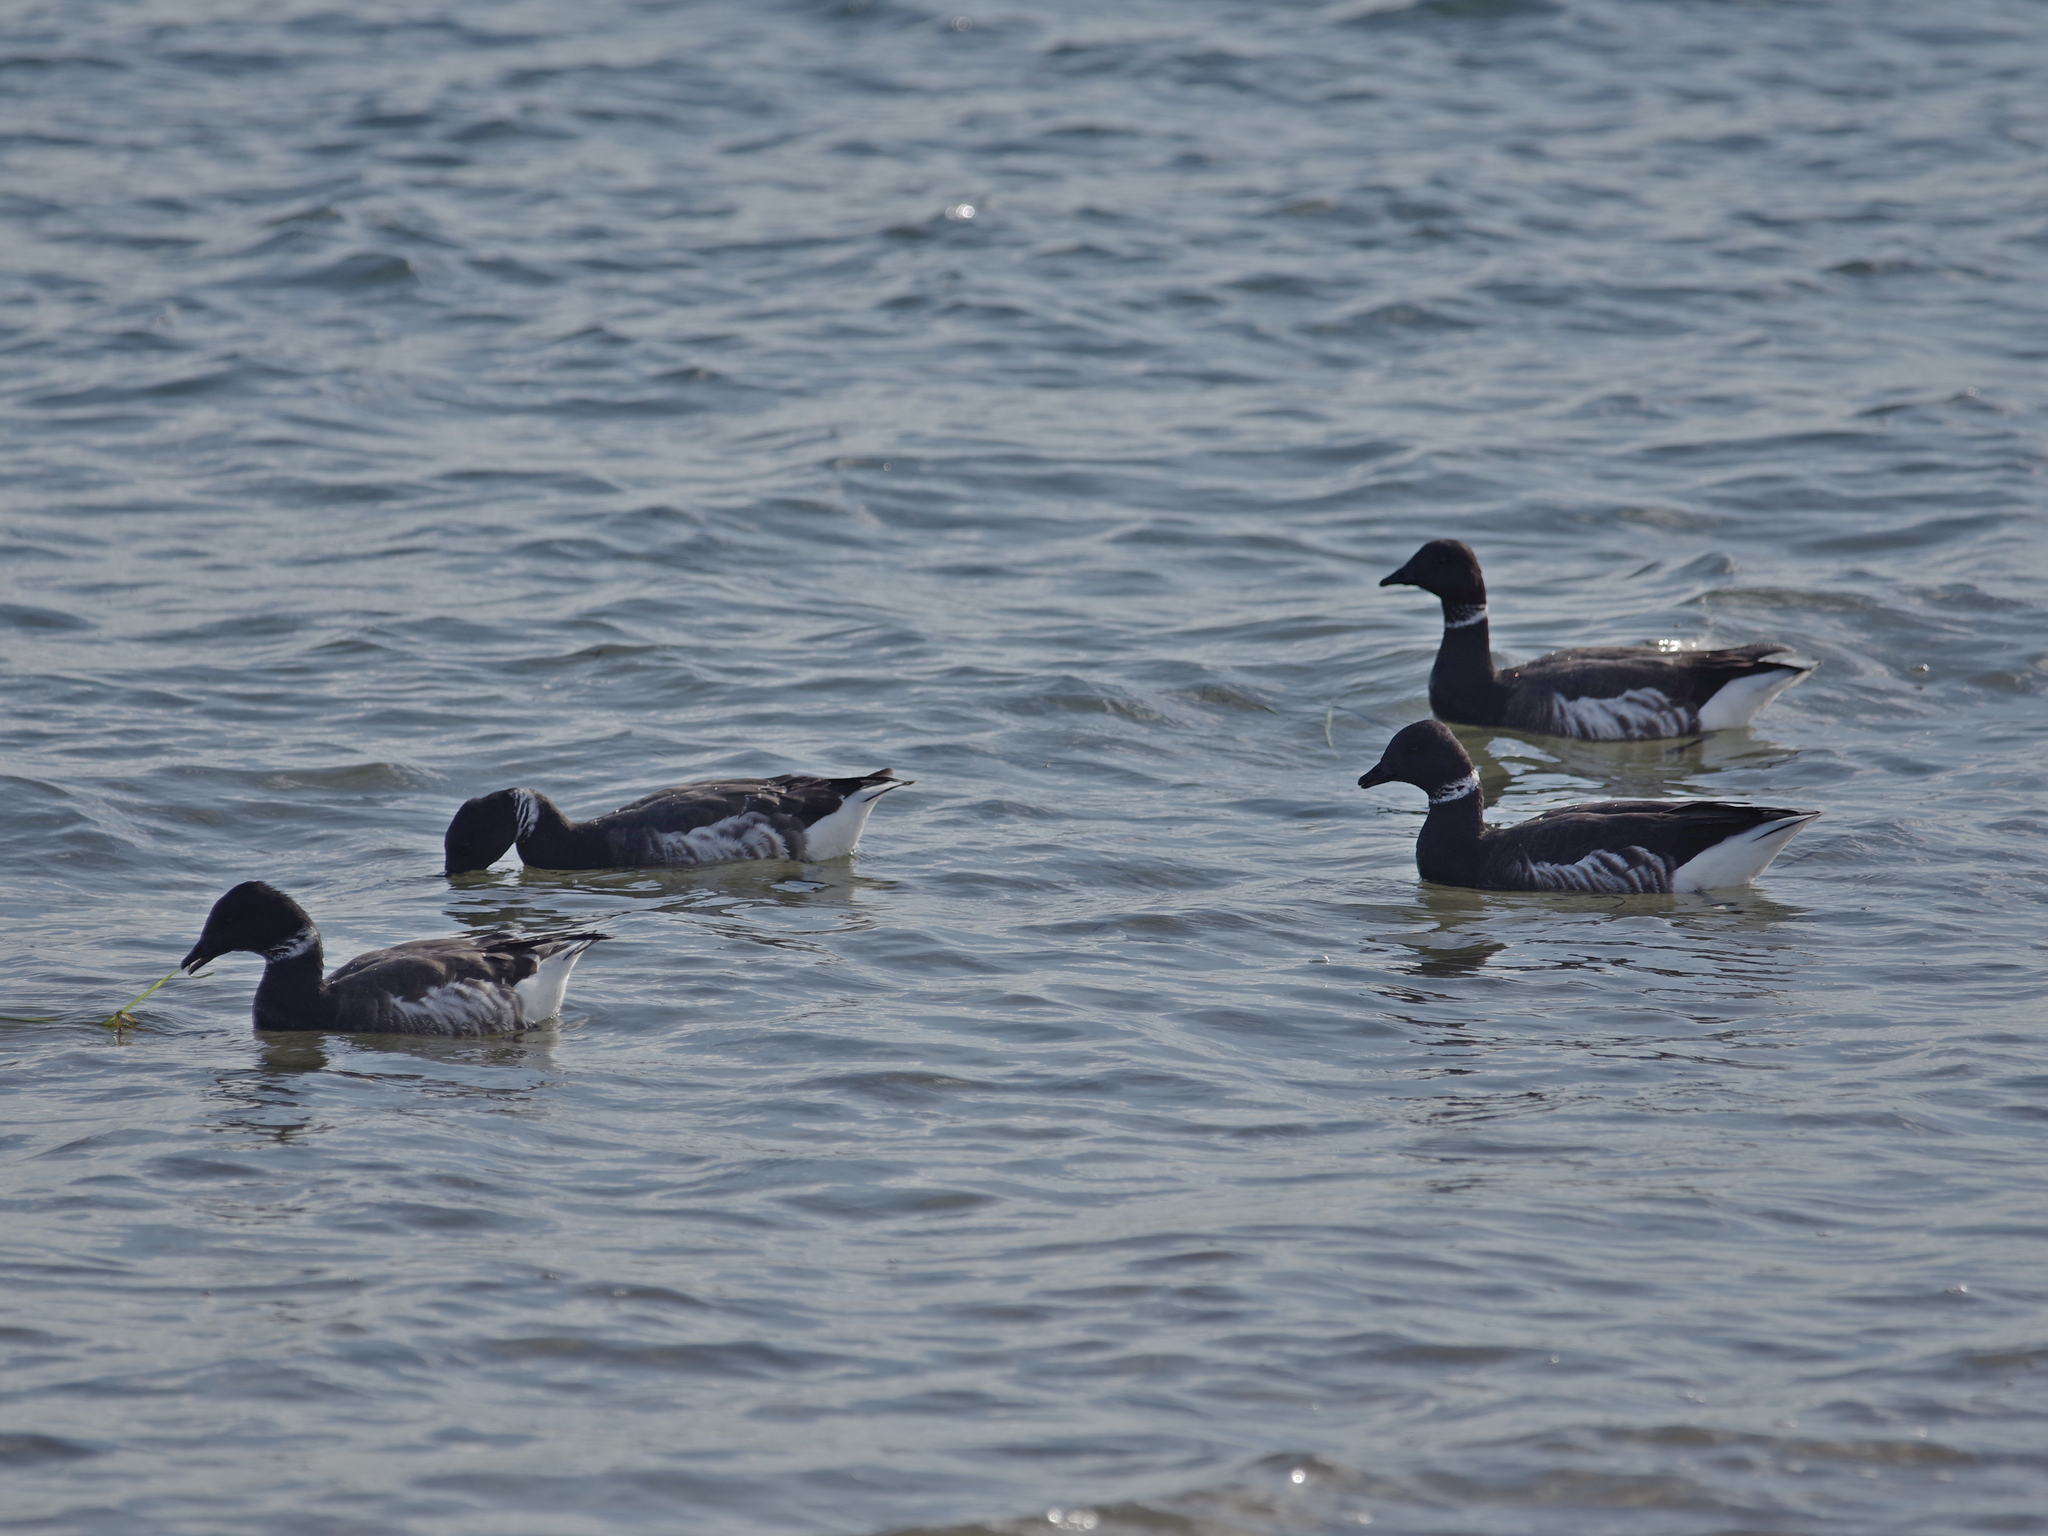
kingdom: Animalia
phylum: Chordata
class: Aves
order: Anseriformes
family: Anatidae
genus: Branta
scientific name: Branta bernicla
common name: Brant goose
